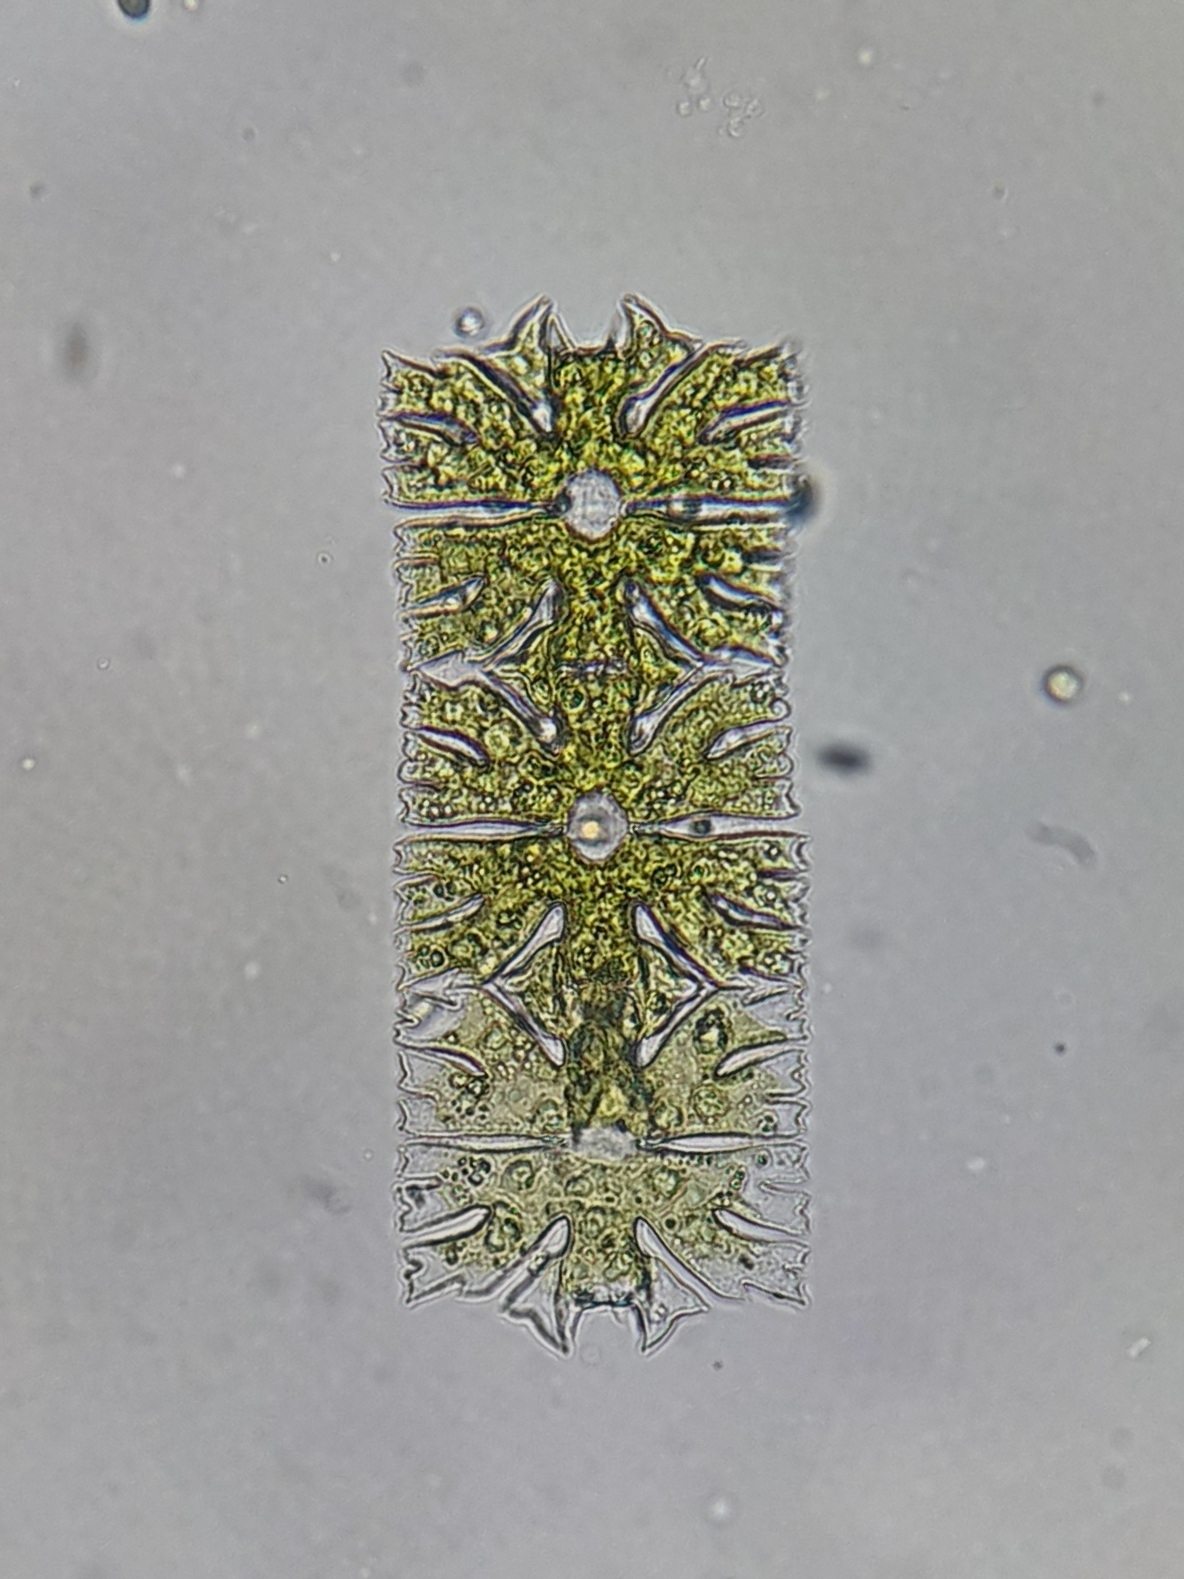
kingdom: Plantae
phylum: Charophyta
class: Conjugatophyceae
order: Desmidiales
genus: Micrasterias
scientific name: Micrasterias foliacea
